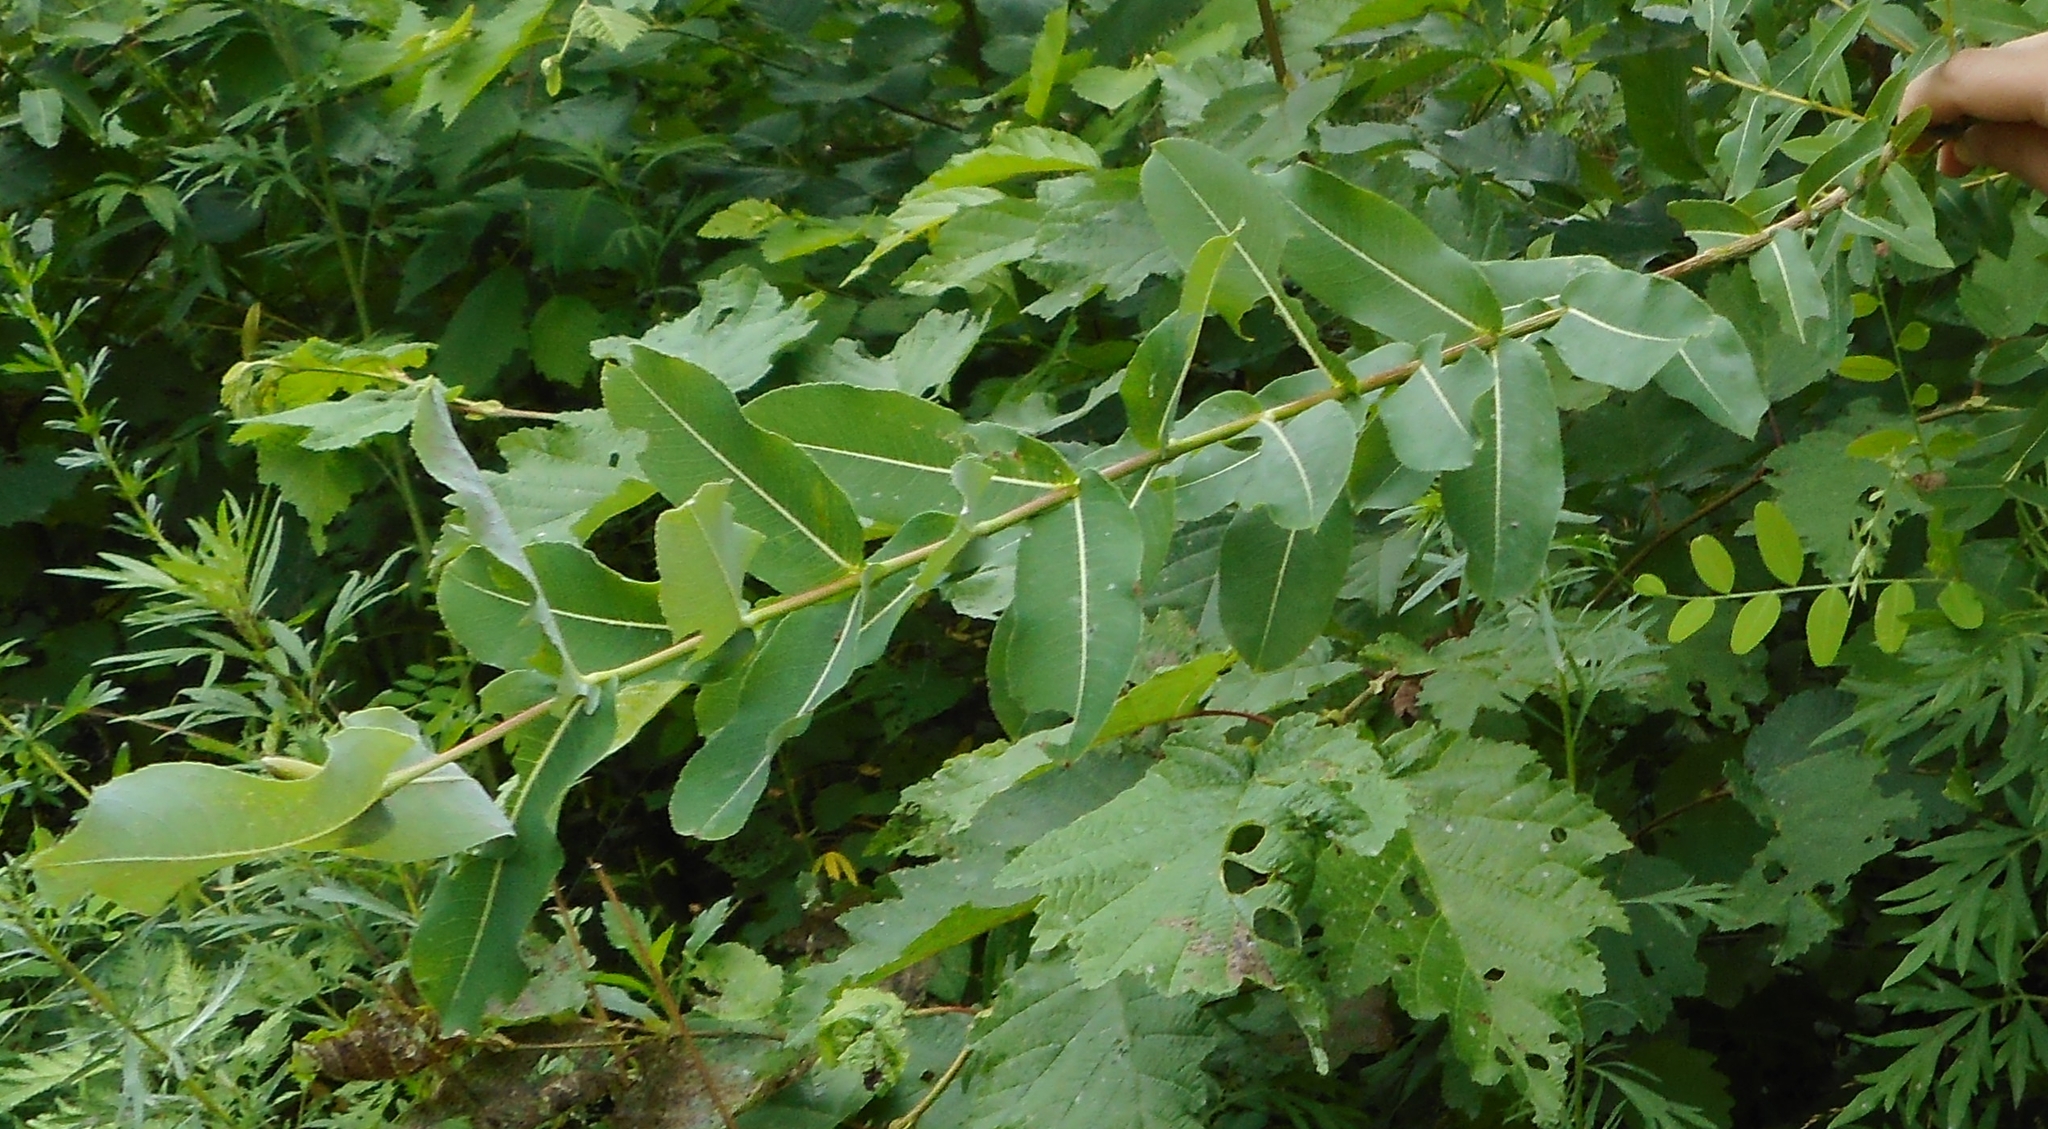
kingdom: Plantae
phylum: Tracheophyta
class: Magnoliopsida
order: Malpighiales
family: Salicaceae
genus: Salix
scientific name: Salix integra
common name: Dappled willow
